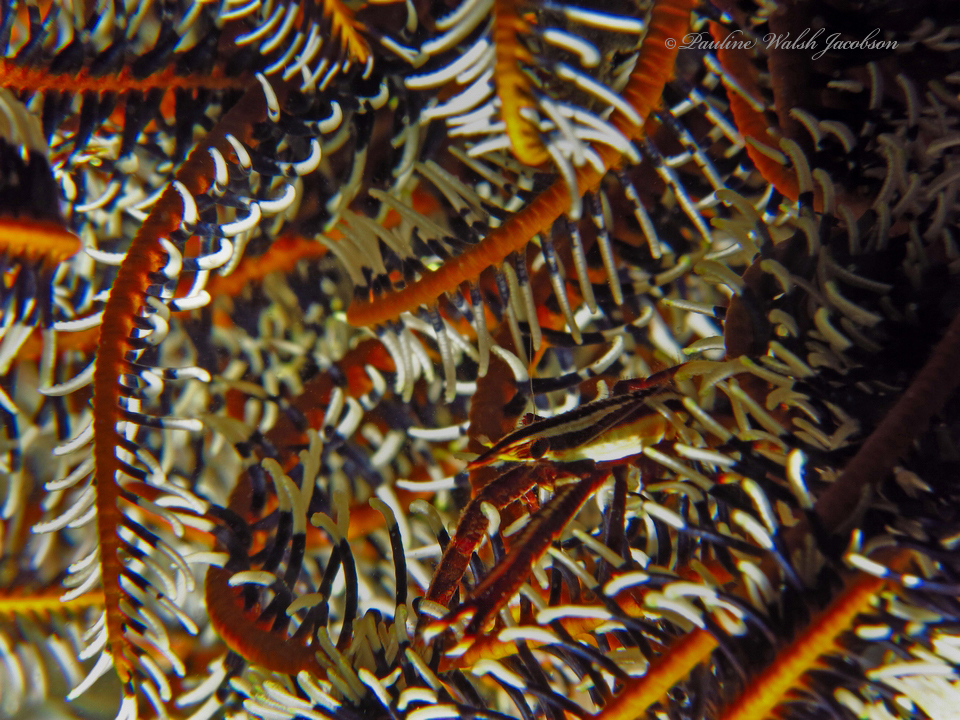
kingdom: Animalia
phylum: Arthropoda
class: Malacostraca
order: Decapoda
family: Galatheidae
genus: Allogalathea
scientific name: Allogalathea elegans
